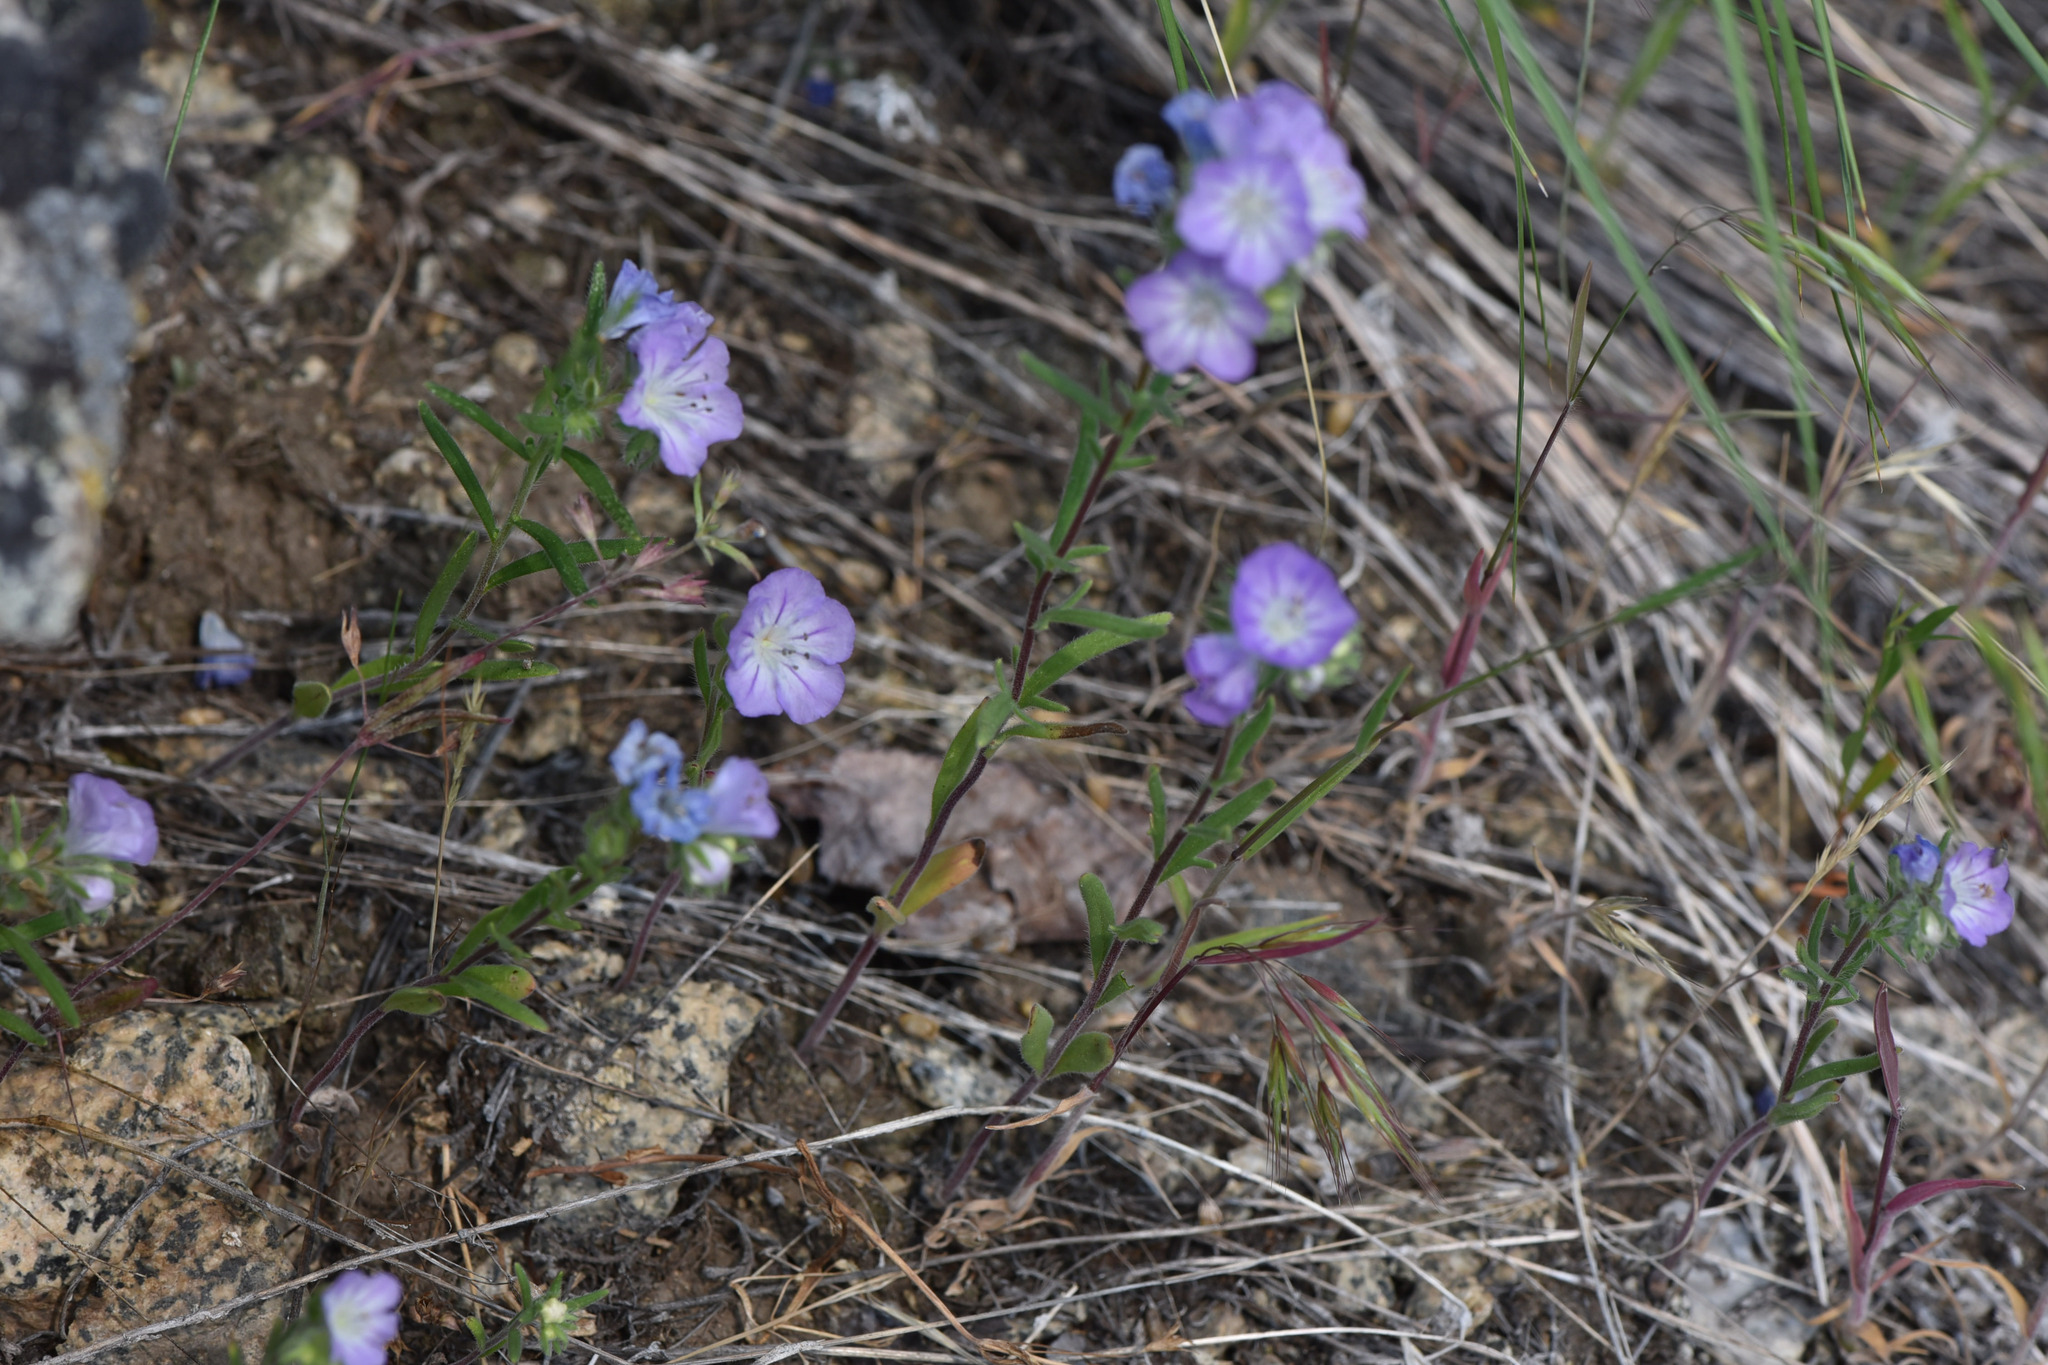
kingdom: Plantae
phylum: Tracheophyta
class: Magnoliopsida
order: Boraginales
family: Hydrophyllaceae
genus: Phacelia
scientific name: Phacelia linearis
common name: Linear-leaved phacelia
